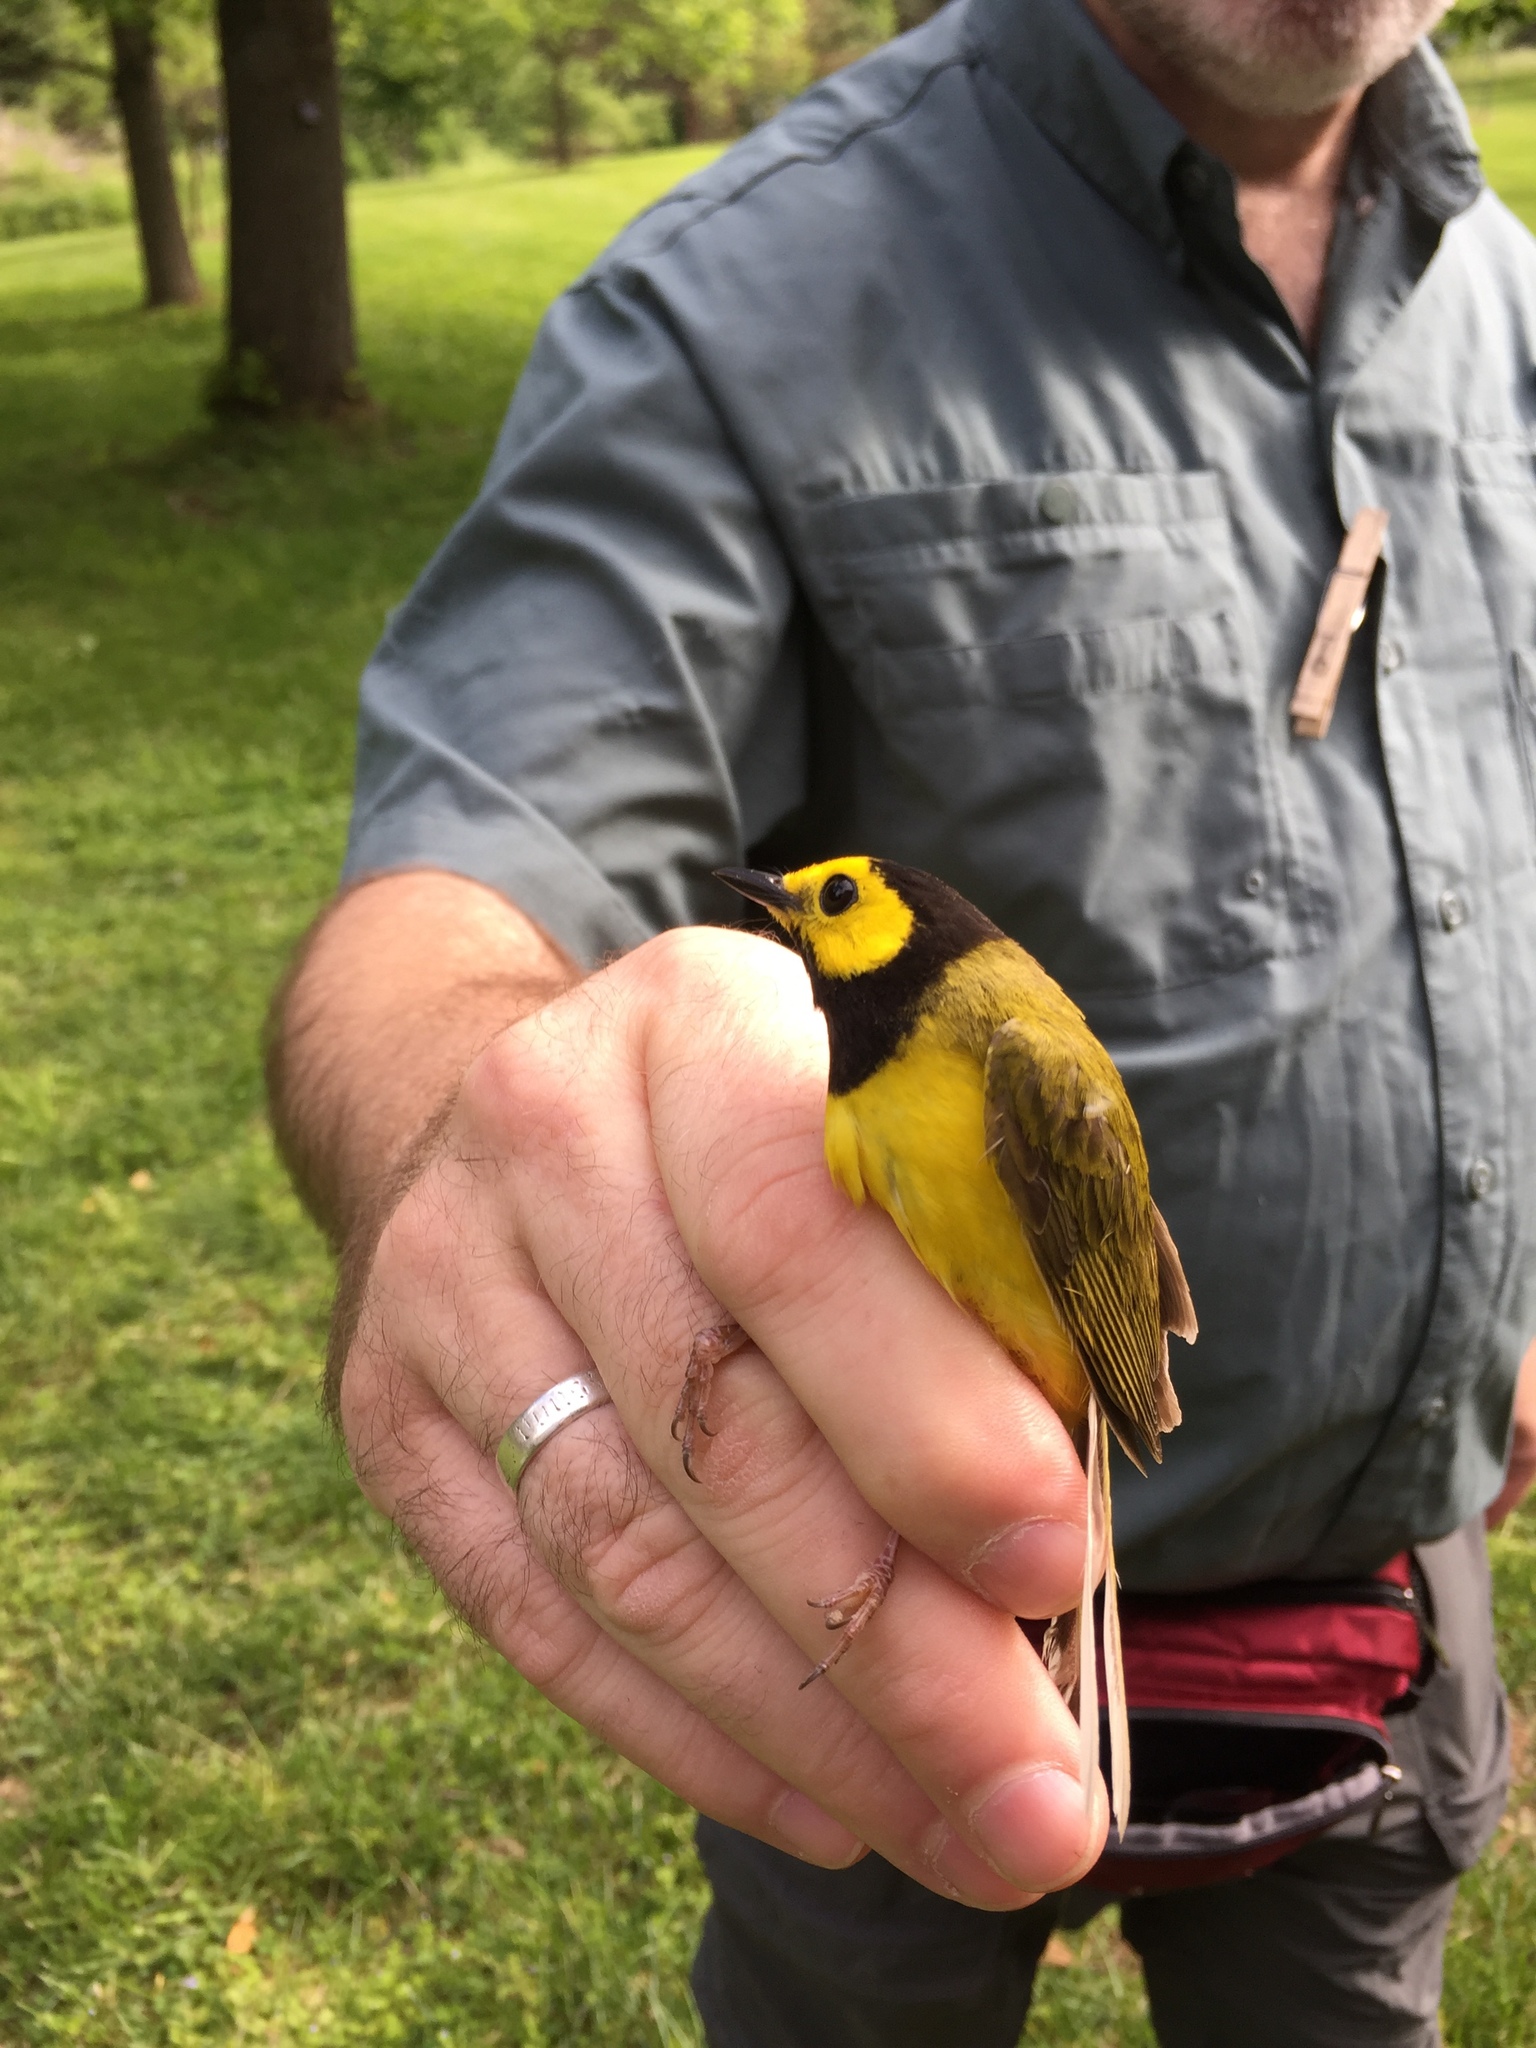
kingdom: Animalia
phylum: Chordata
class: Aves
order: Passeriformes
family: Parulidae
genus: Setophaga
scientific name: Setophaga citrina
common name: Hooded warbler
